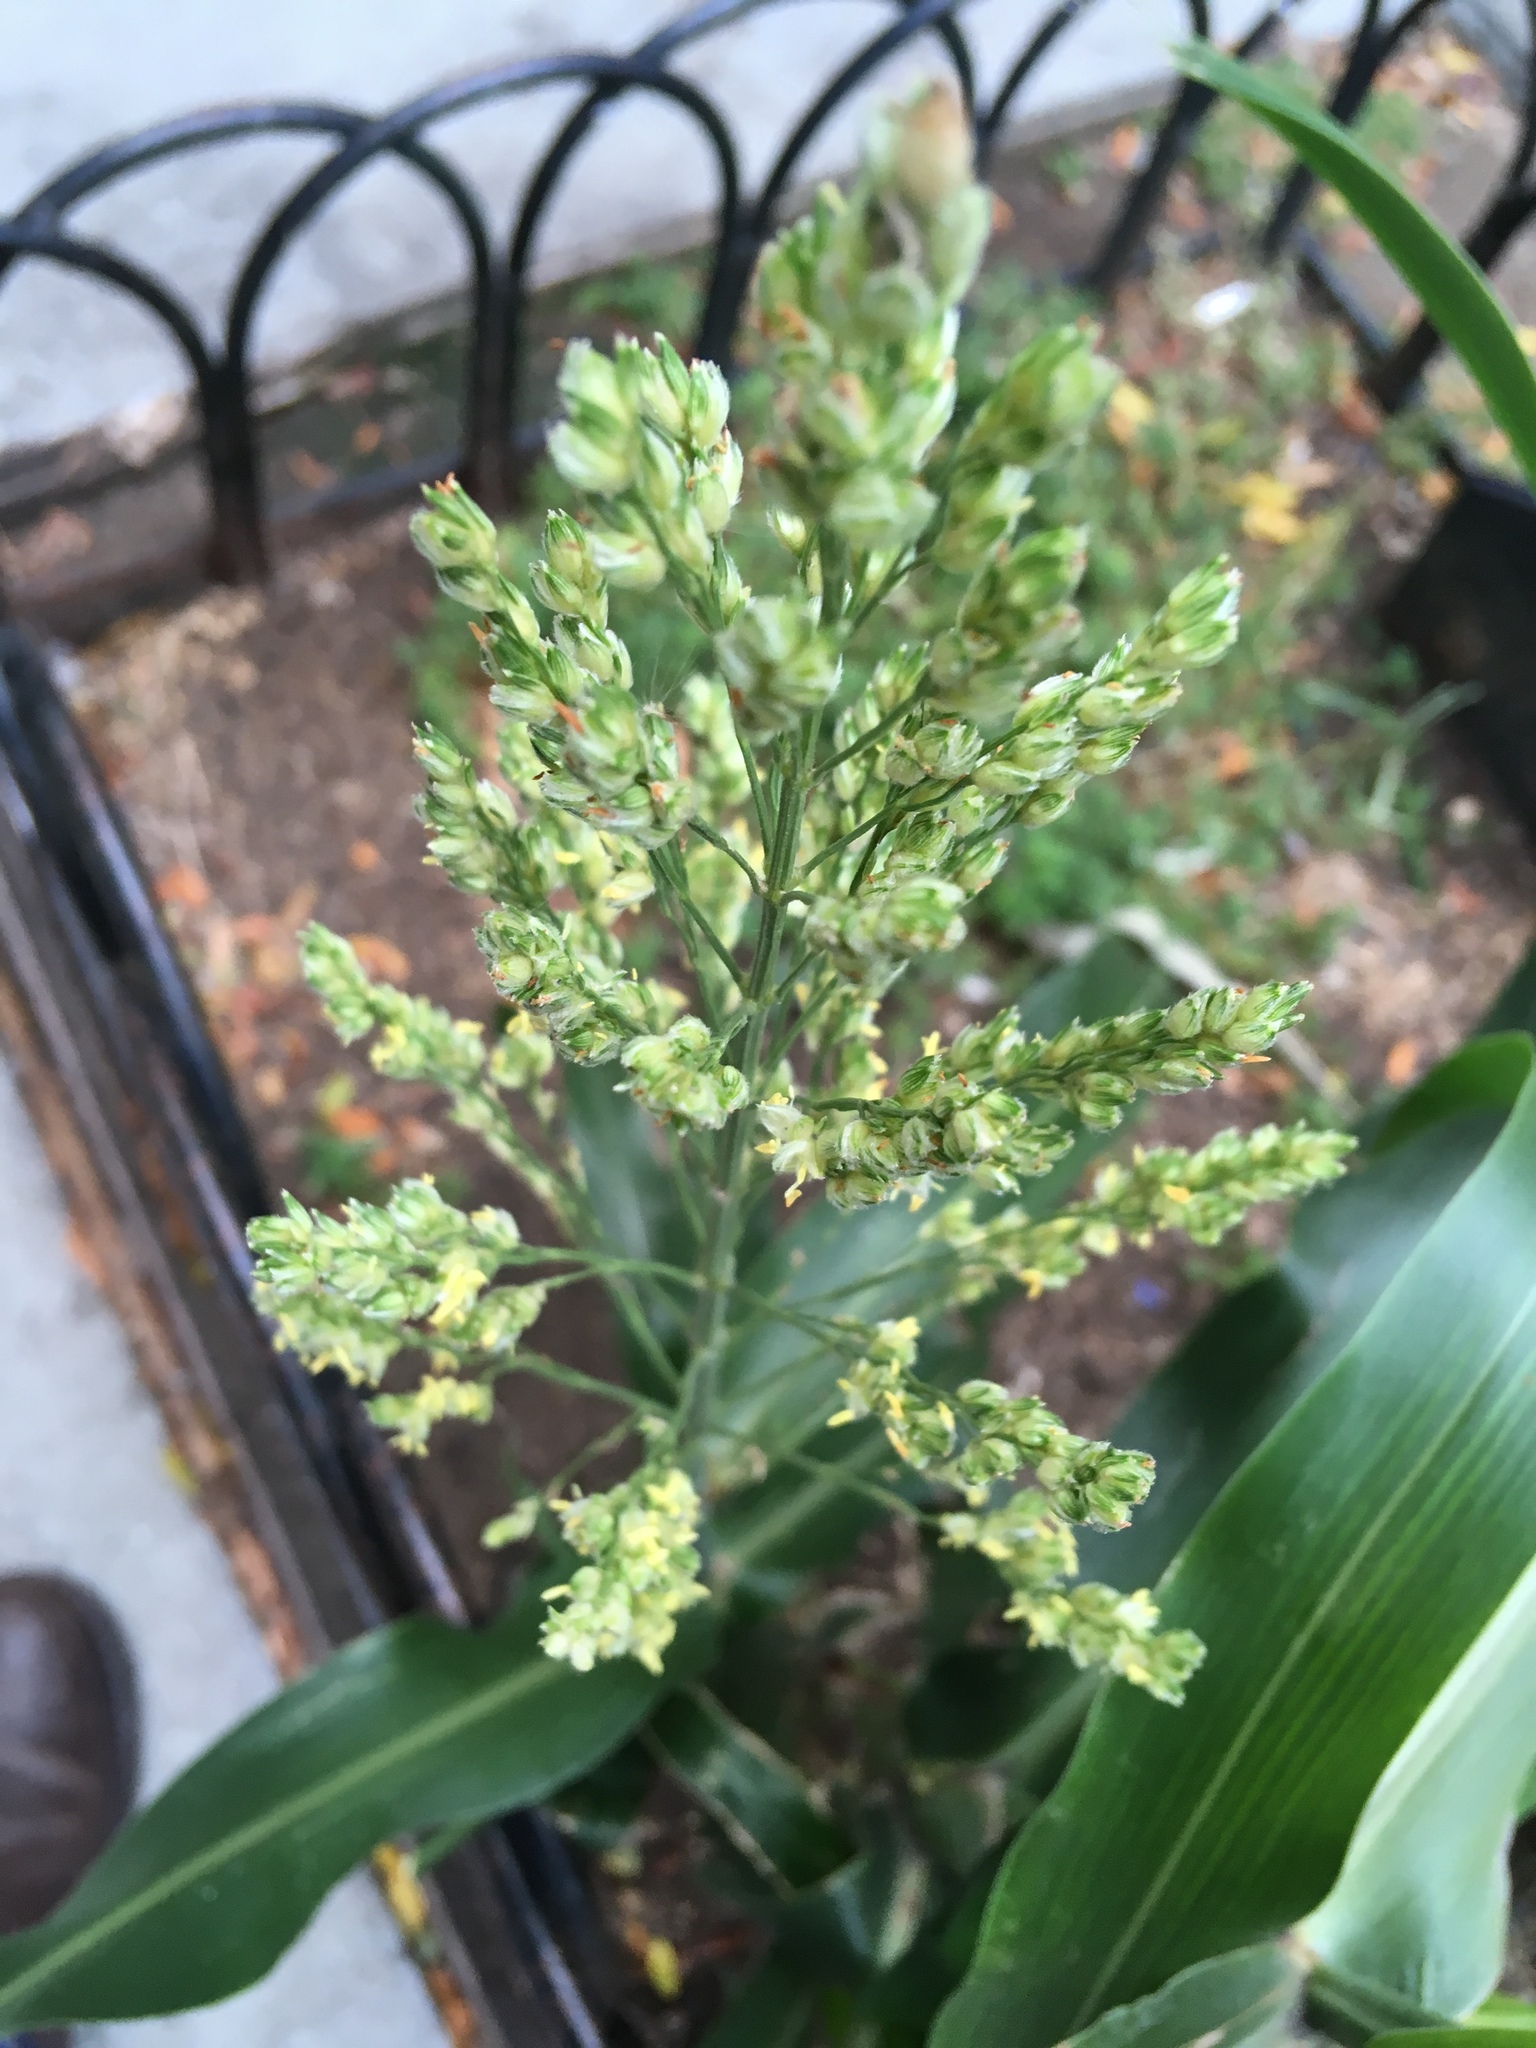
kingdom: Plantae
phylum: Tracheophyta
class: Liliopsida
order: Poales
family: Poaceae
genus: Sorghum
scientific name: Sorghum bicolor
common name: Sorghum
